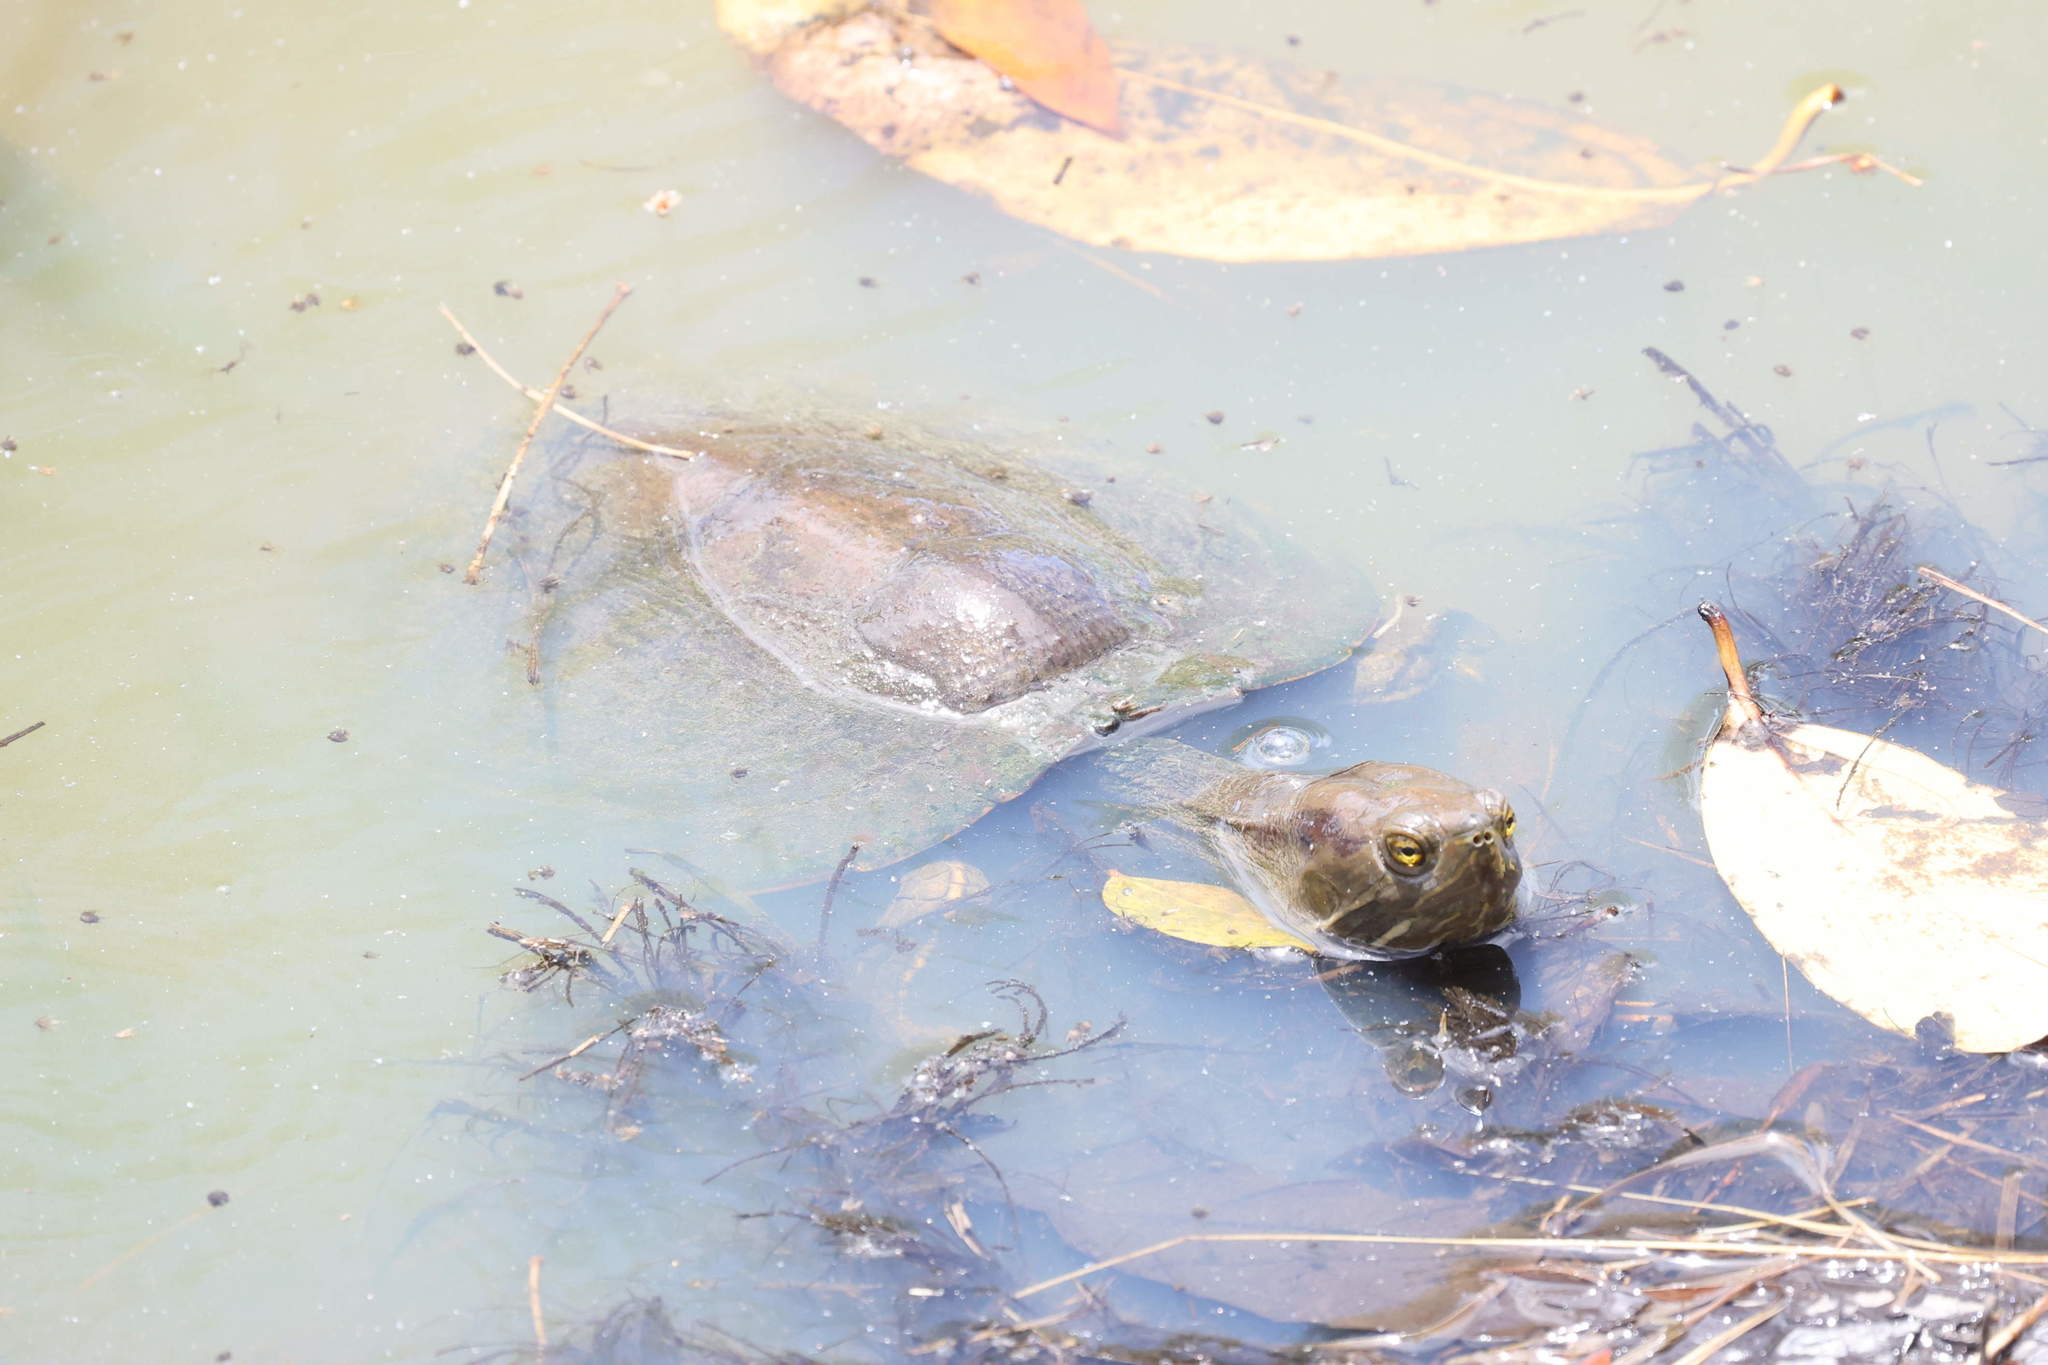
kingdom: Animalia
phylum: Chordata
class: Testudines
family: Emydidae
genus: Trachemys
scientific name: Trachemys stejnegeri
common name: Puerto rican slider
